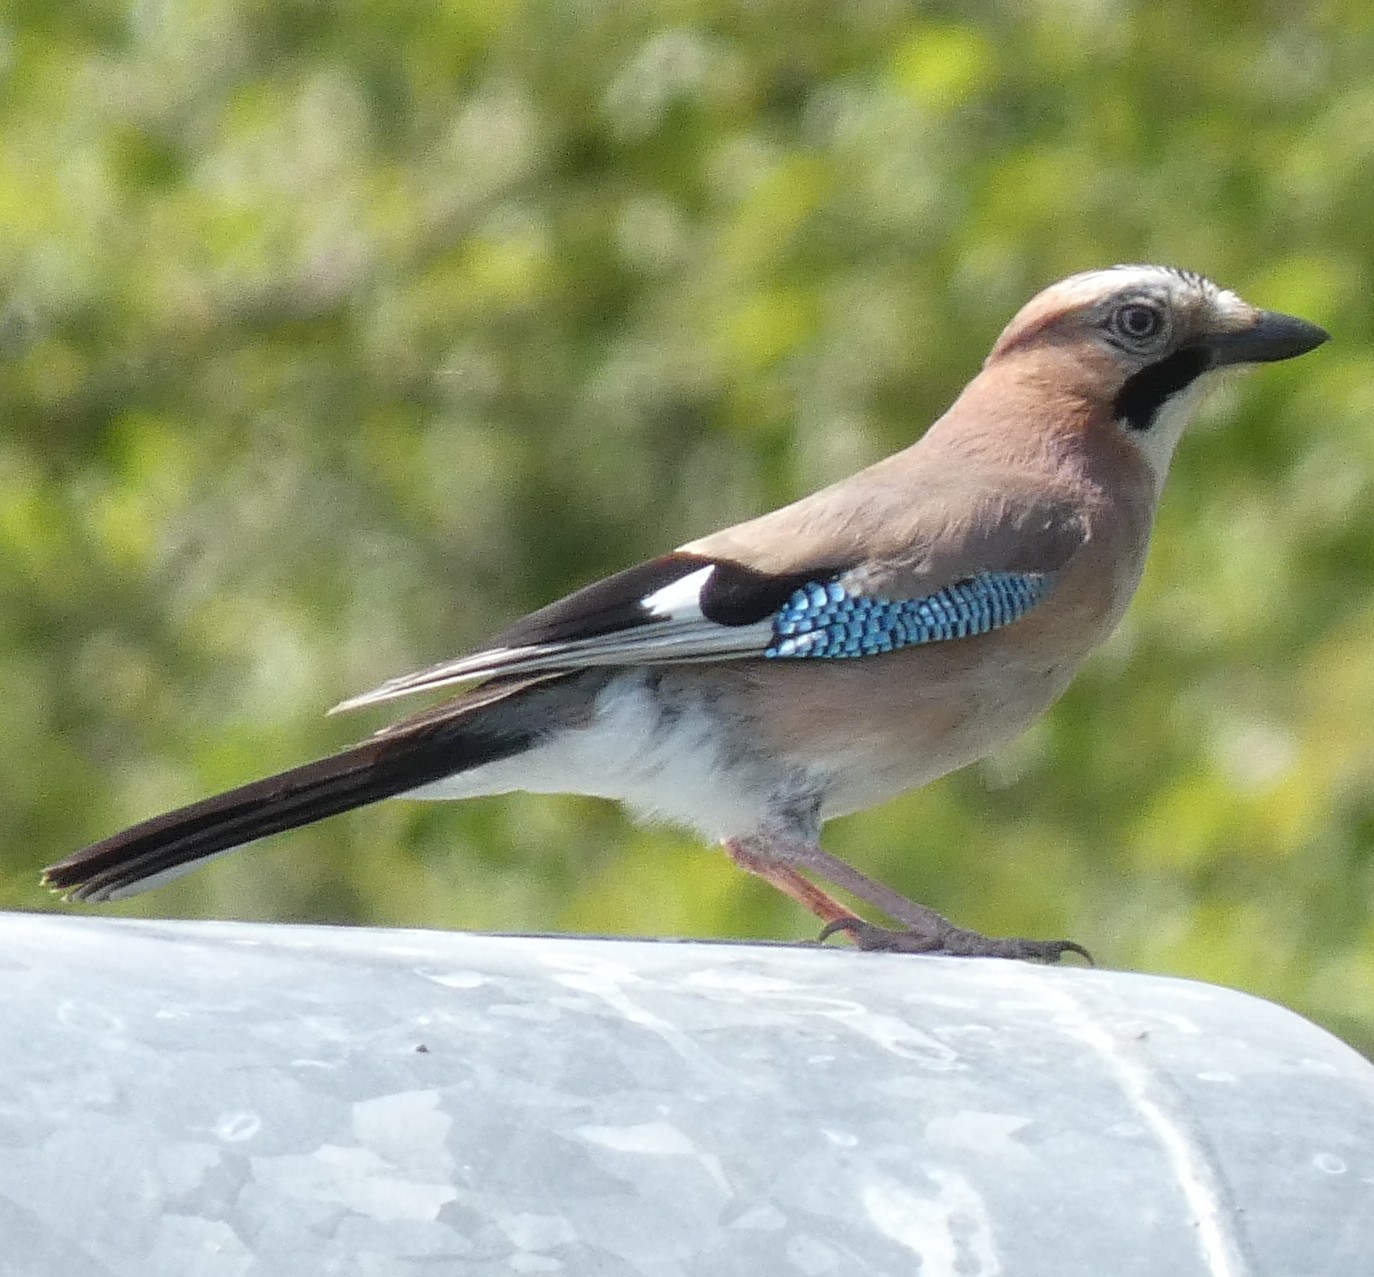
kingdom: Animalia
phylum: Chordata
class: Aves
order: Passeriformes
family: Corvidae
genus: Garrulus
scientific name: Garrulus glandarius
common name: Eurasian jay
